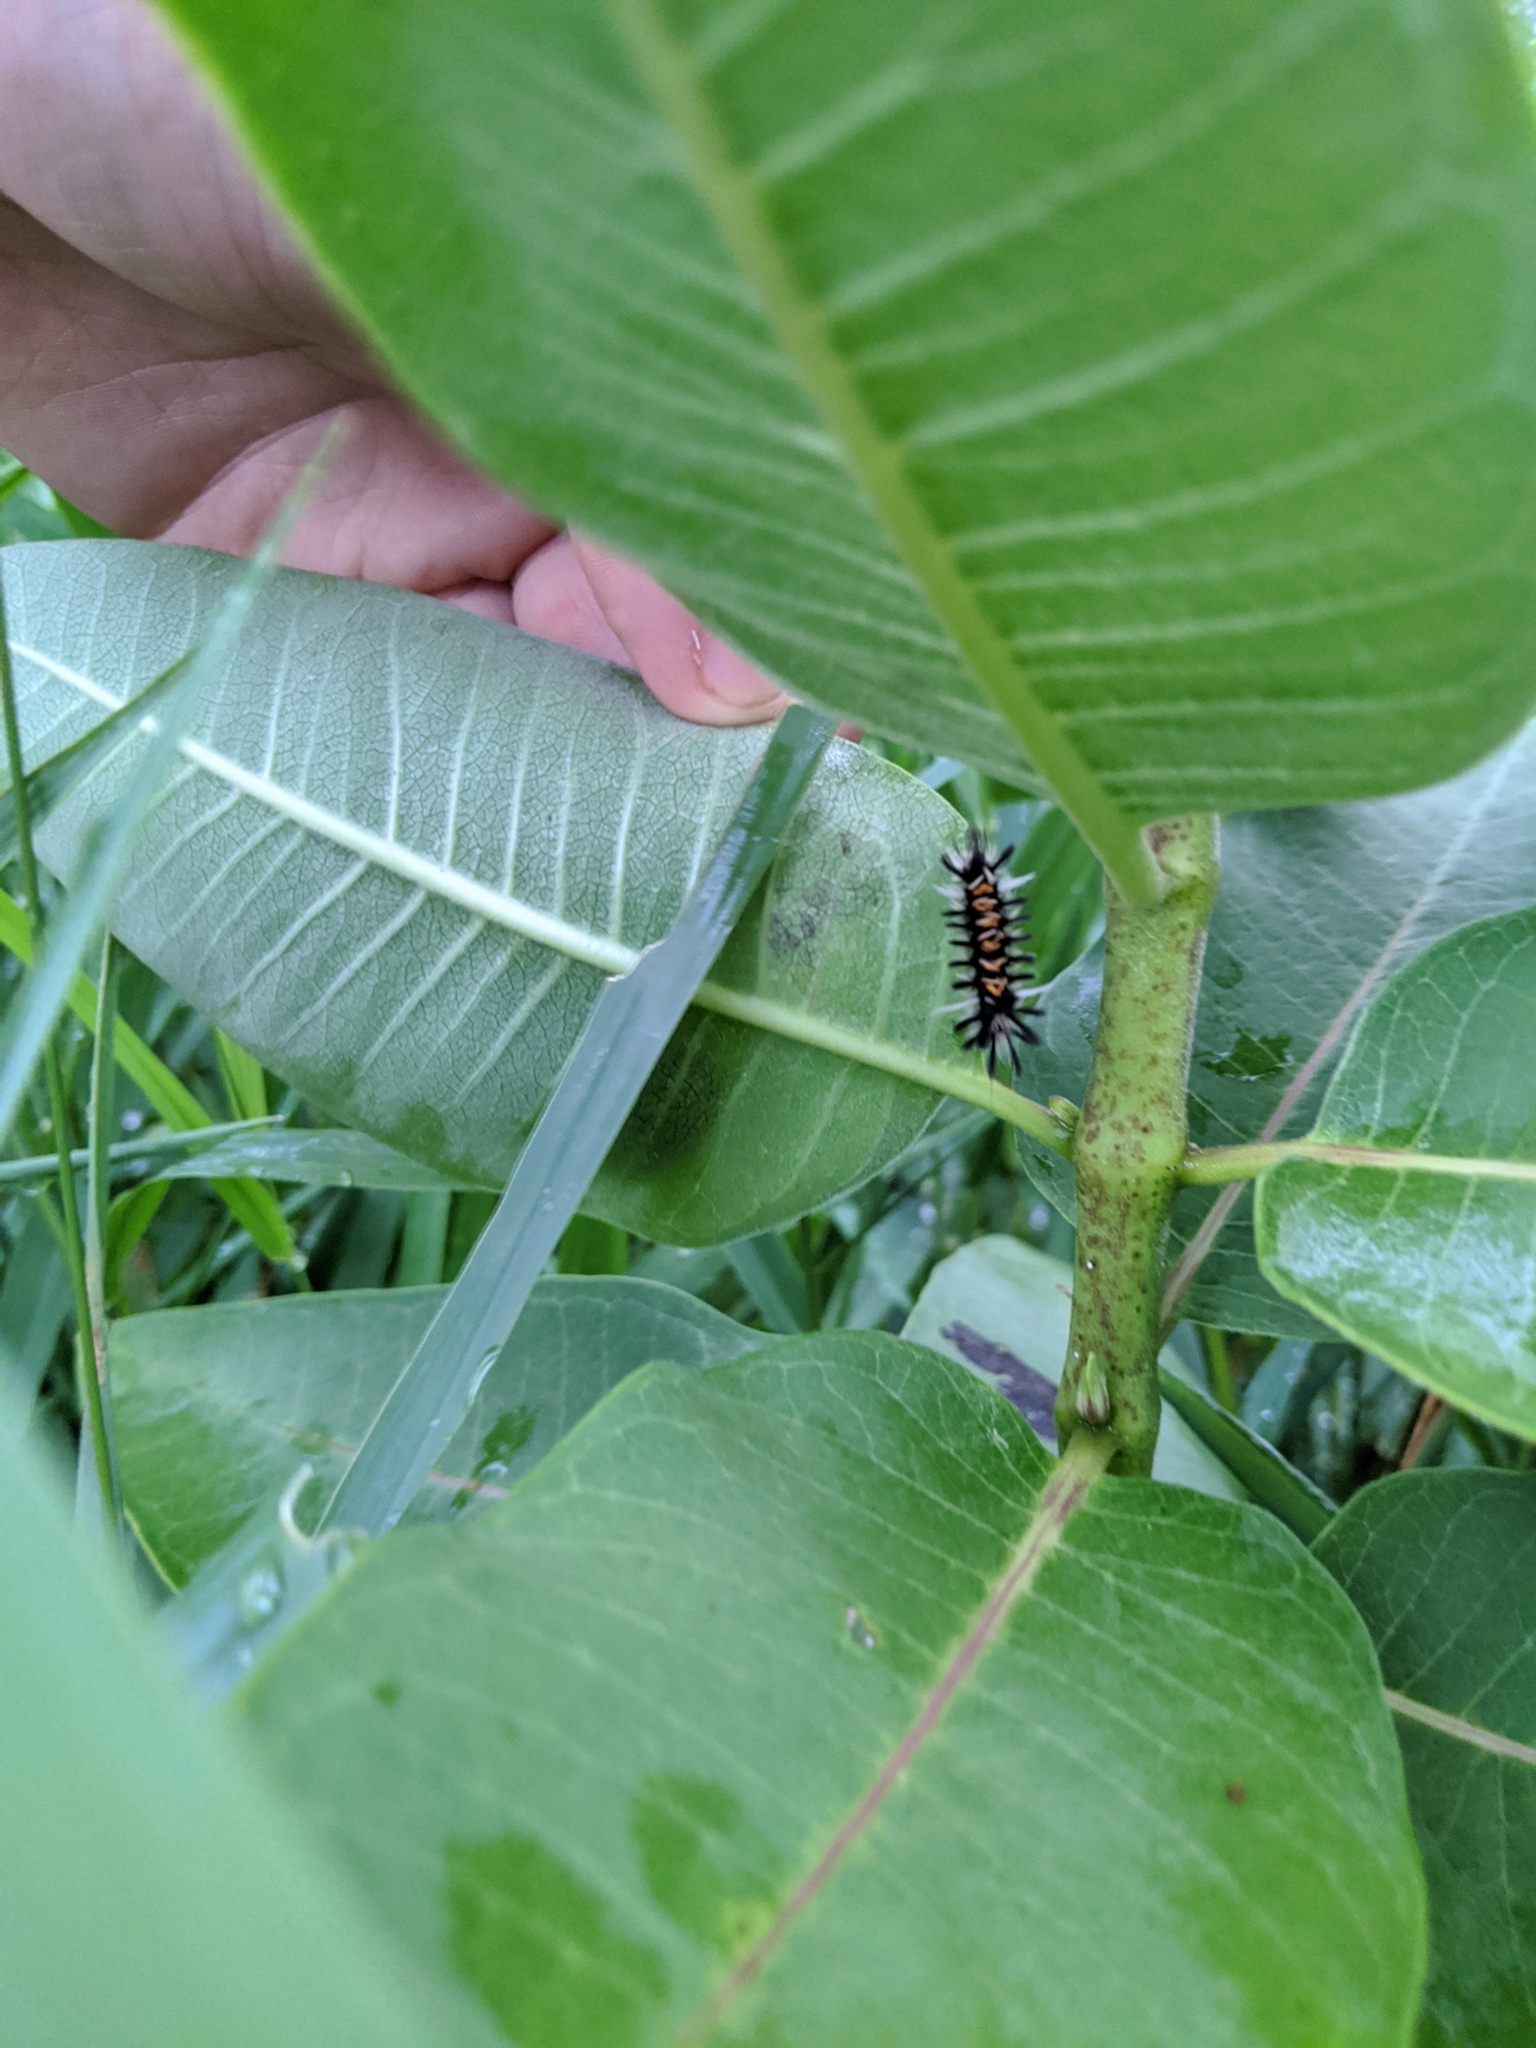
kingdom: Animalia
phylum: Arthropoda
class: Insecta
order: Lepidoptera
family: Erebidae
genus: Euchaetes
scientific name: Euchaetes egle
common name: Milkweed tussock moth
